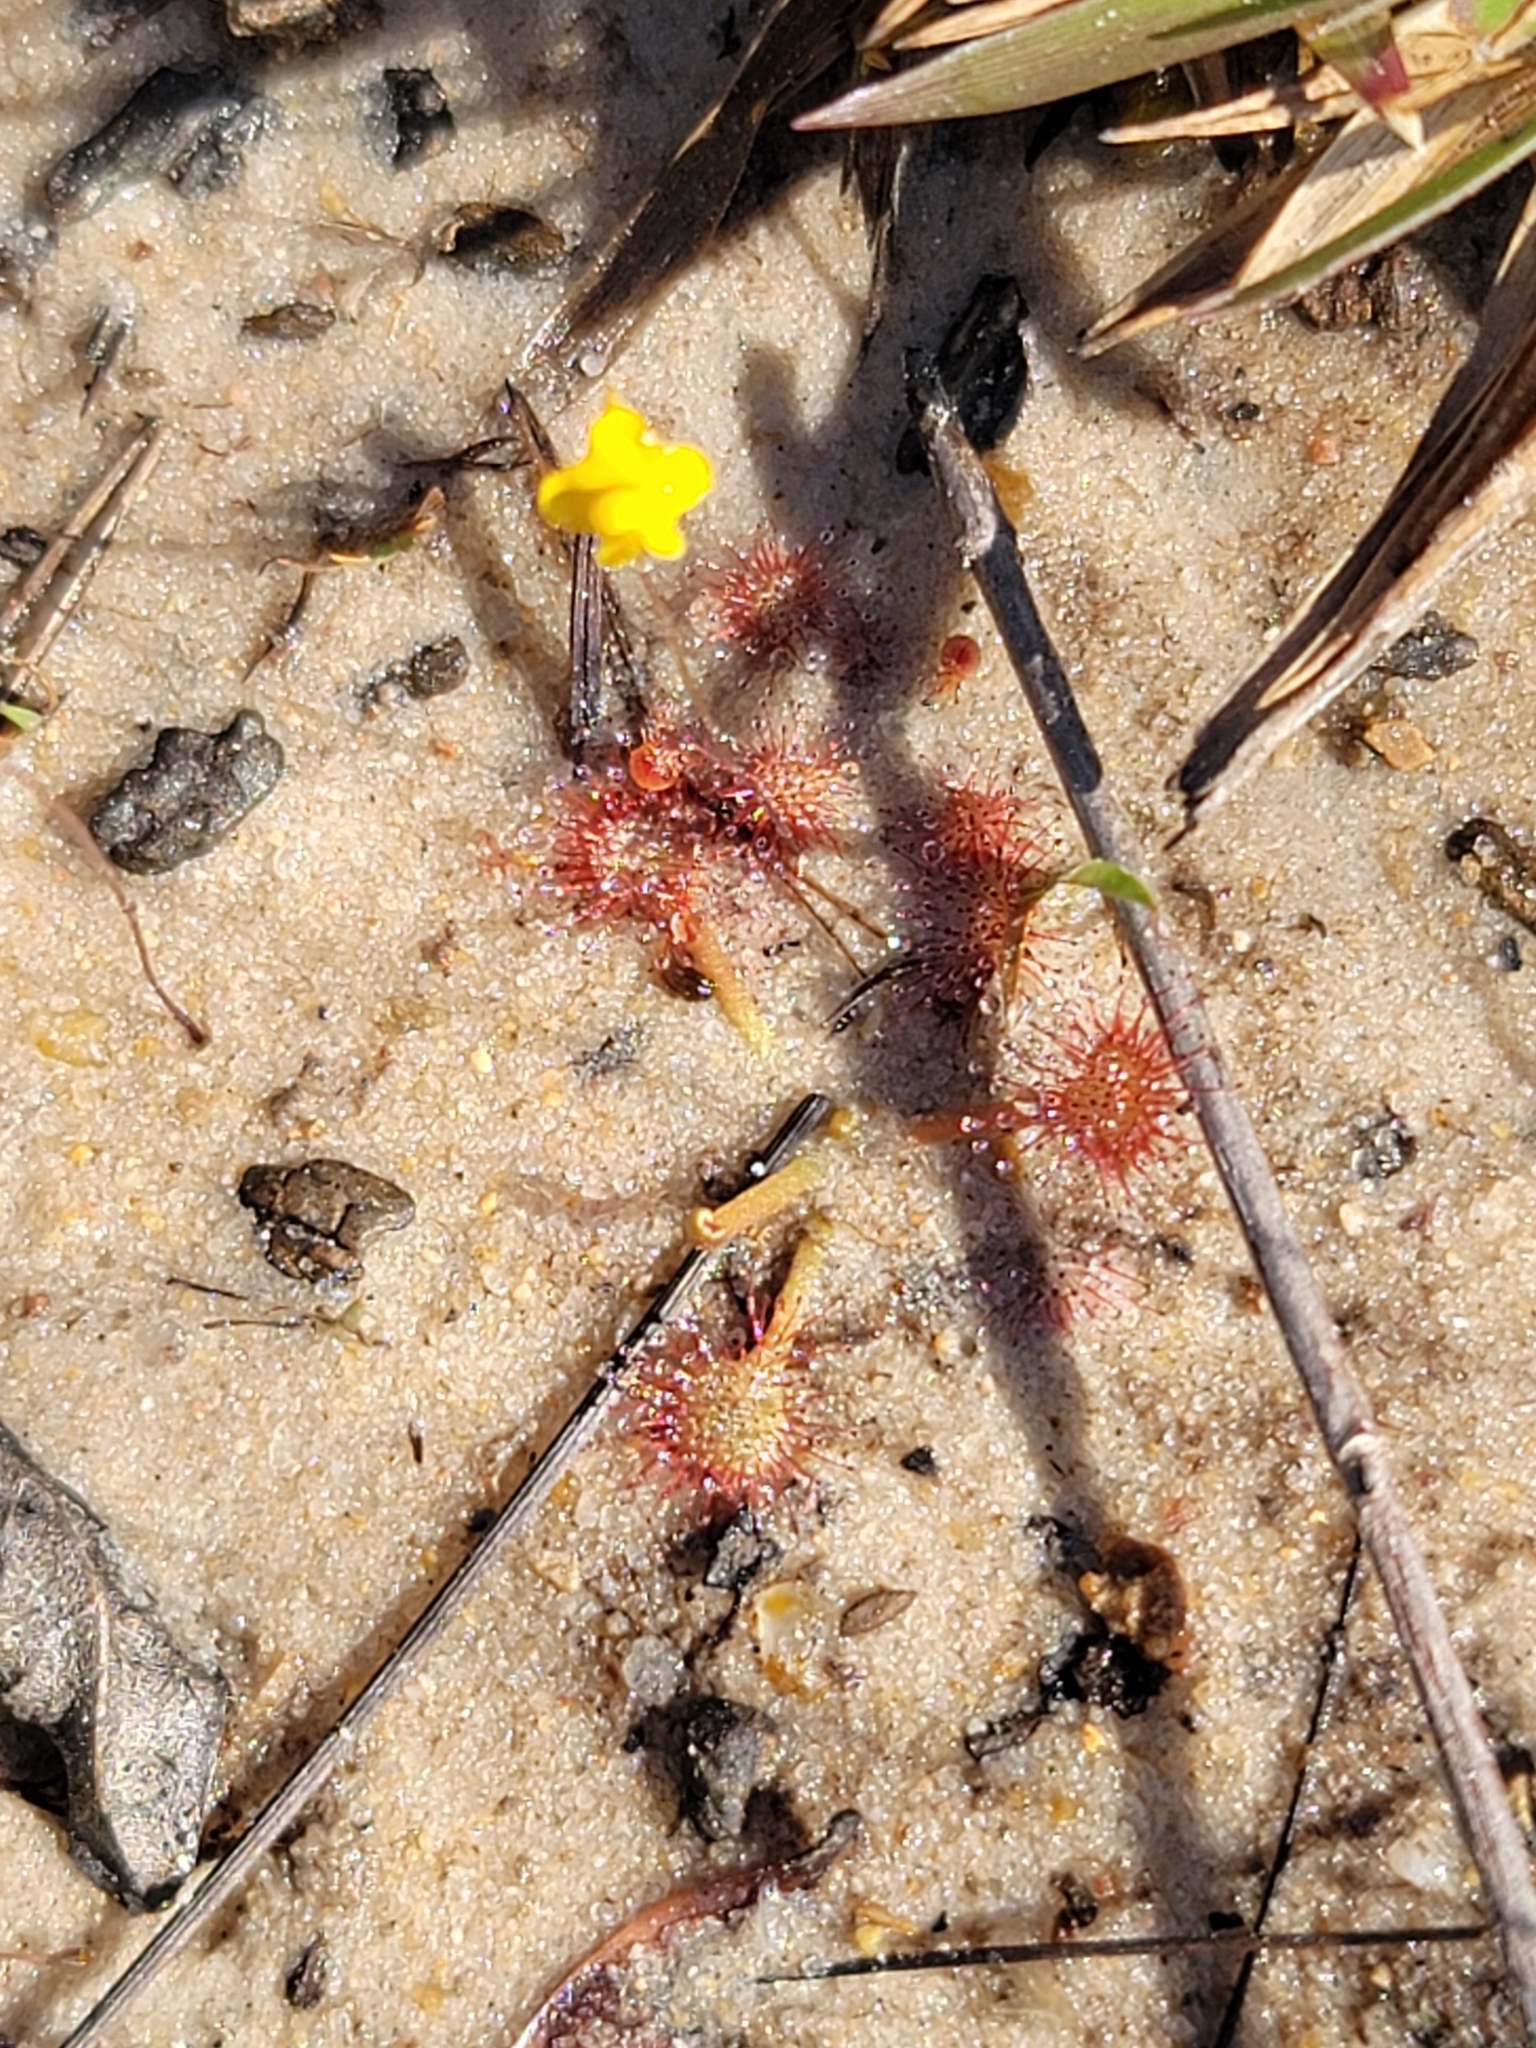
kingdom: Plantae
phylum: Tracheophyta
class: Magnoliopsida
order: Caryophyllales
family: Droseraceae
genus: Drosera
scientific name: Drosera capillaris
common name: Pink sundew
